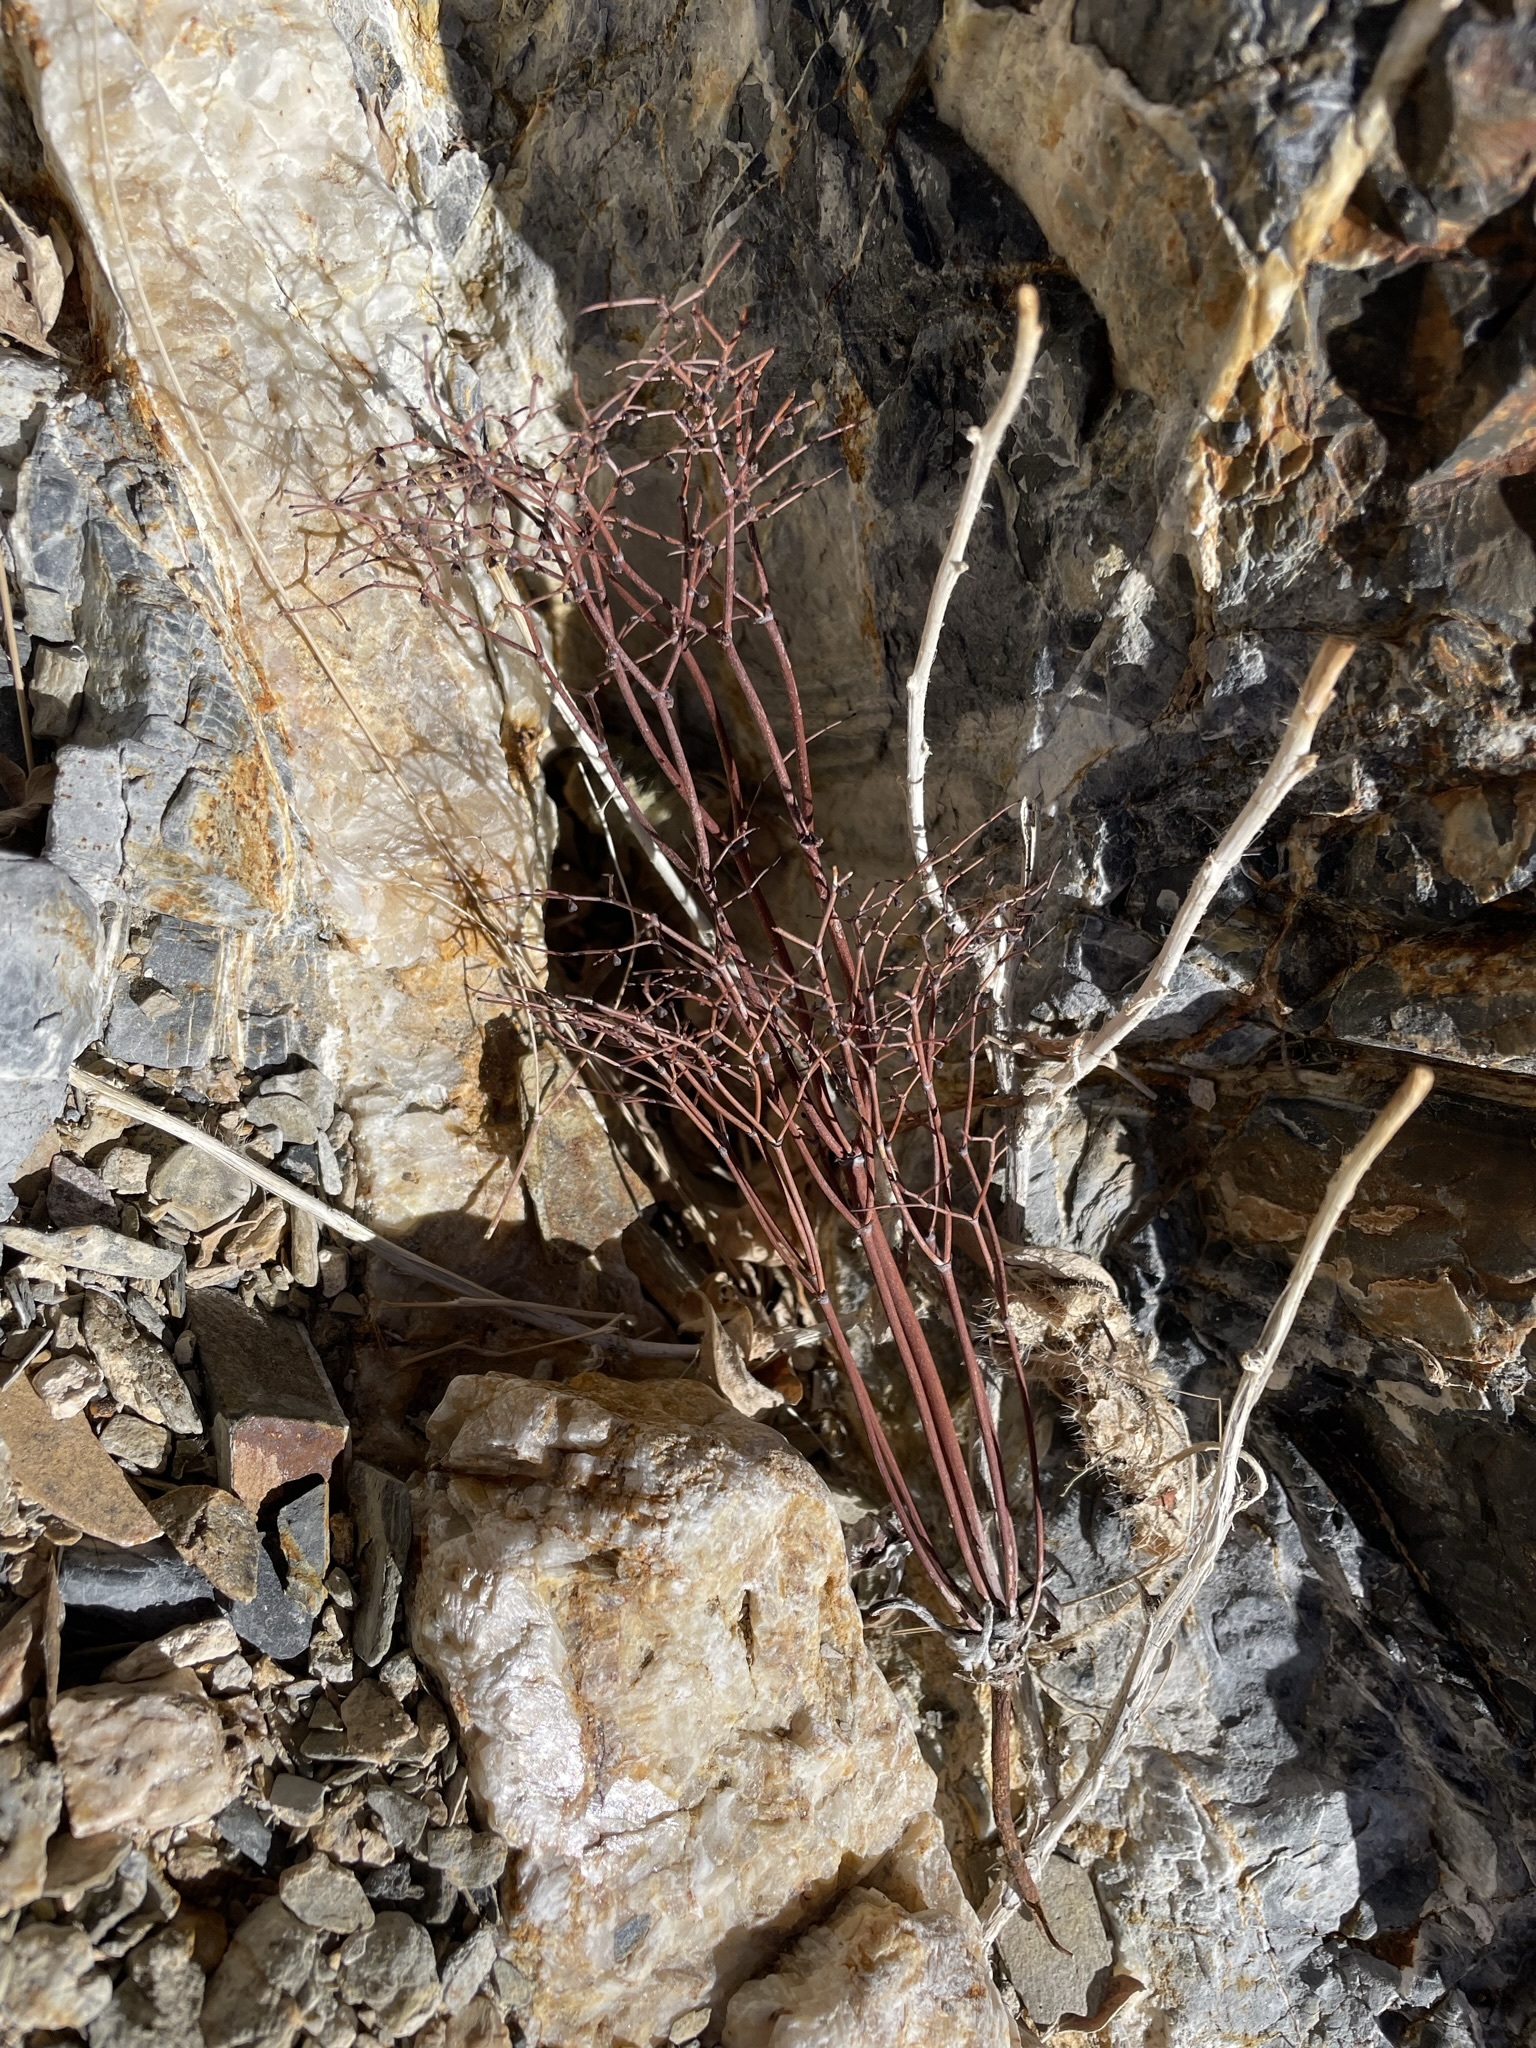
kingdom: Plantae
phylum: Tracheophyta
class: Magnoliopsida
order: Caryophyllales
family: Polygonaceae
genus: Eriogonum
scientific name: Eriogonum rixfordii
